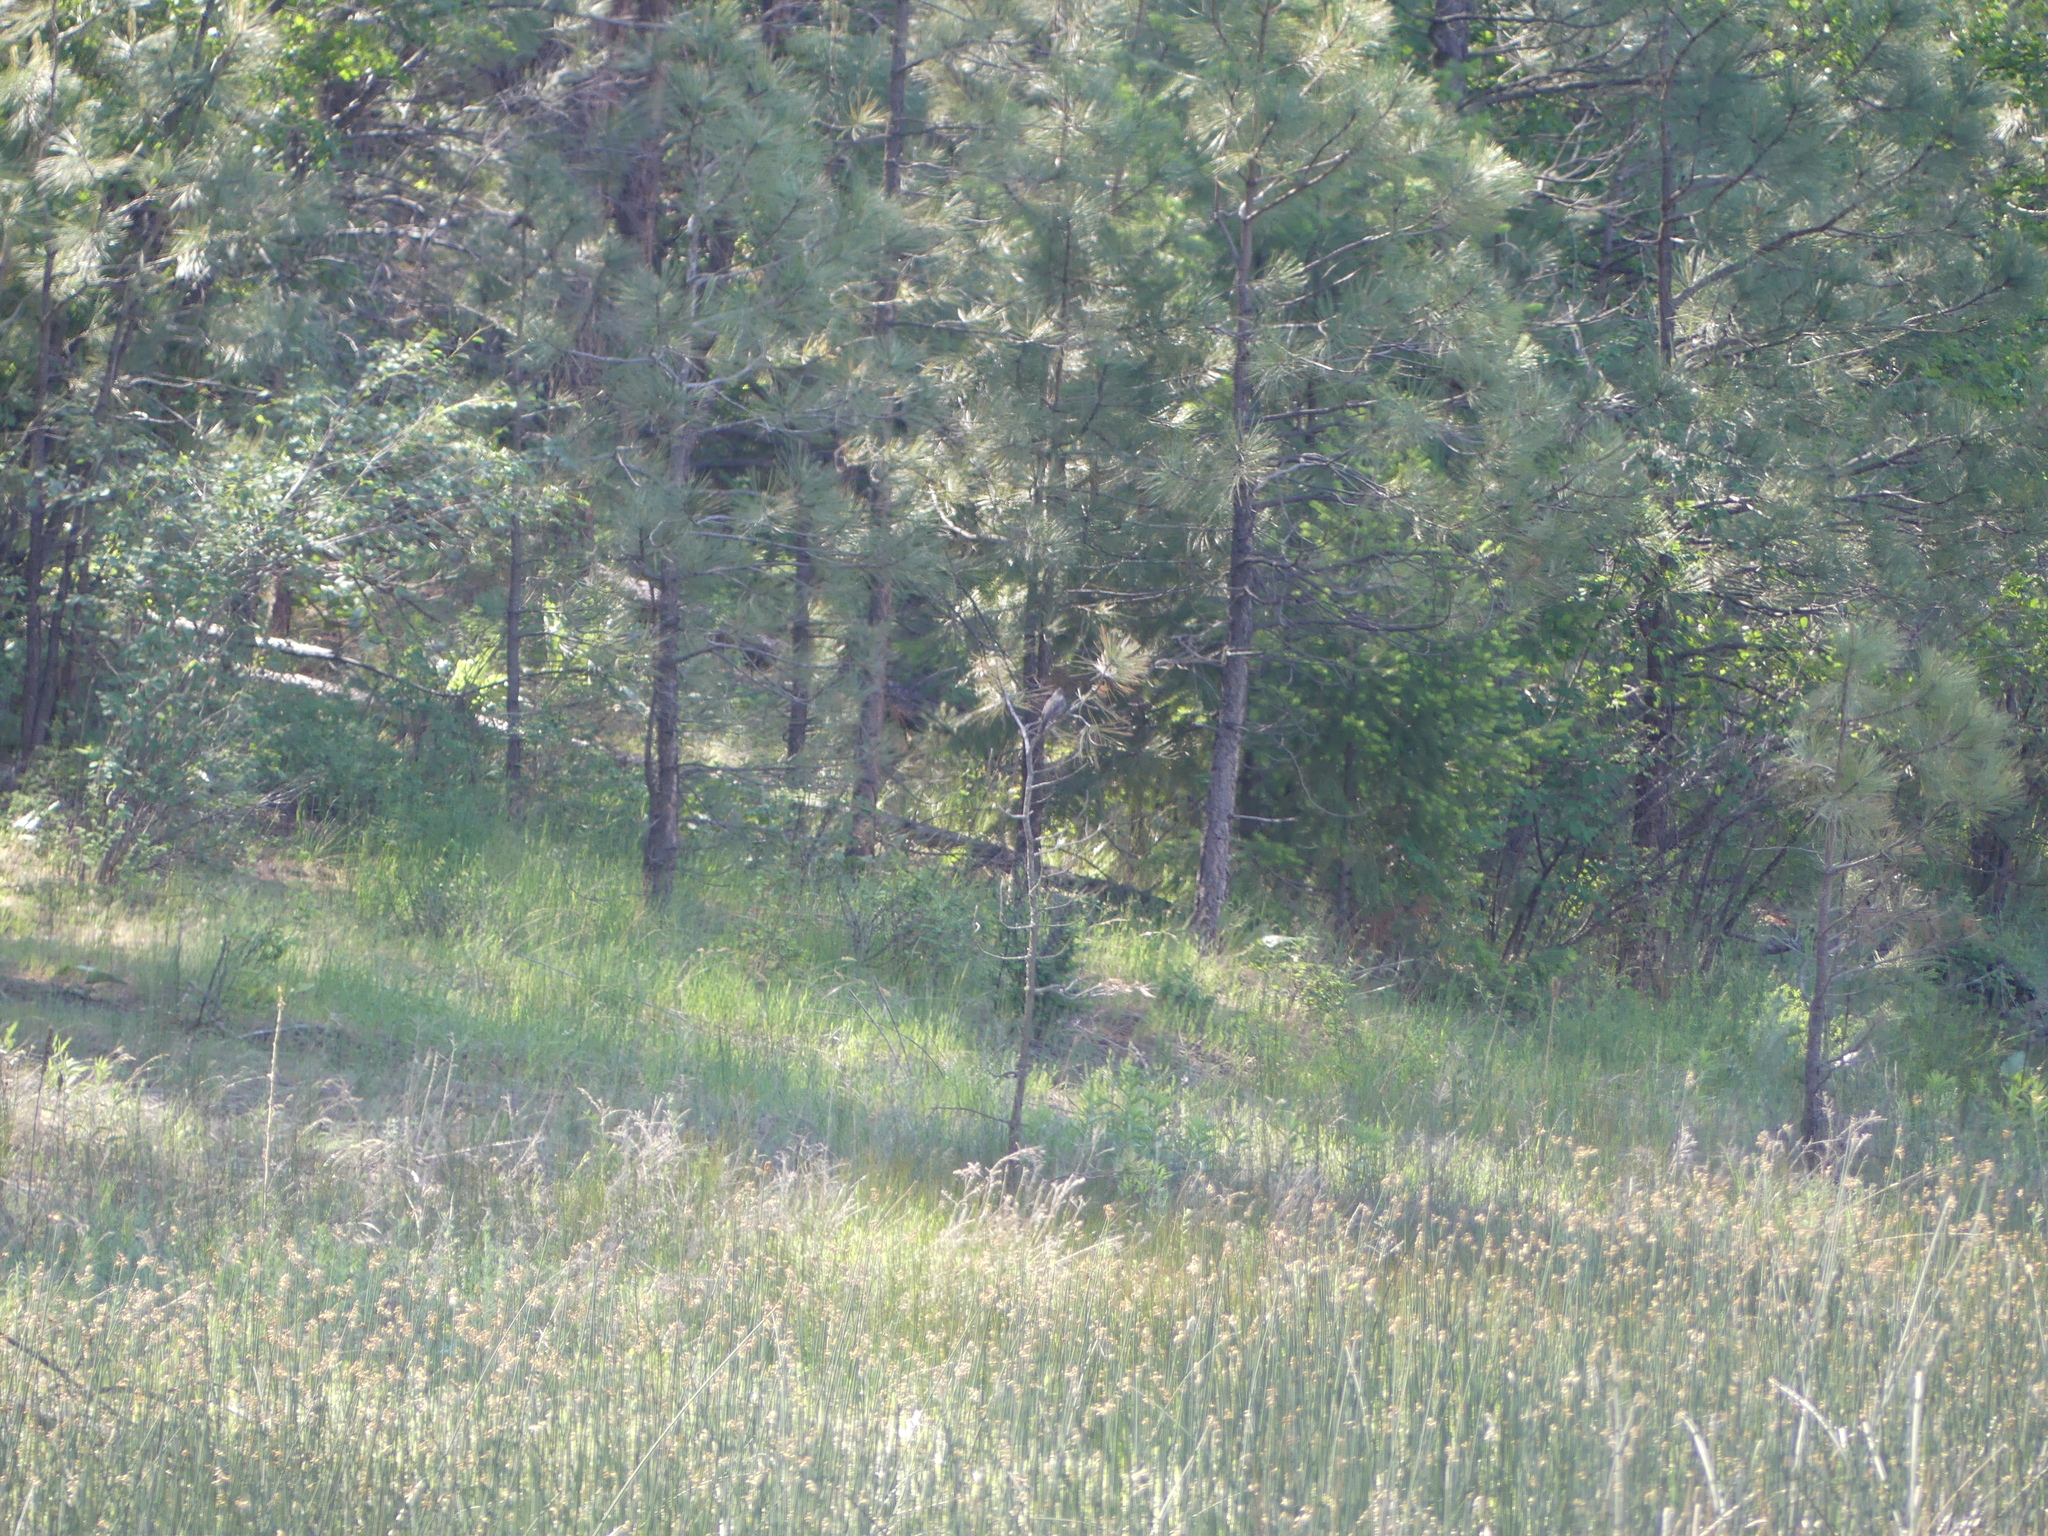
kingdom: Animalia
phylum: Chordata
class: Aves
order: Passeriformes
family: Turdidae
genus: Turdus
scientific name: Turdus migratorius
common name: American robin
